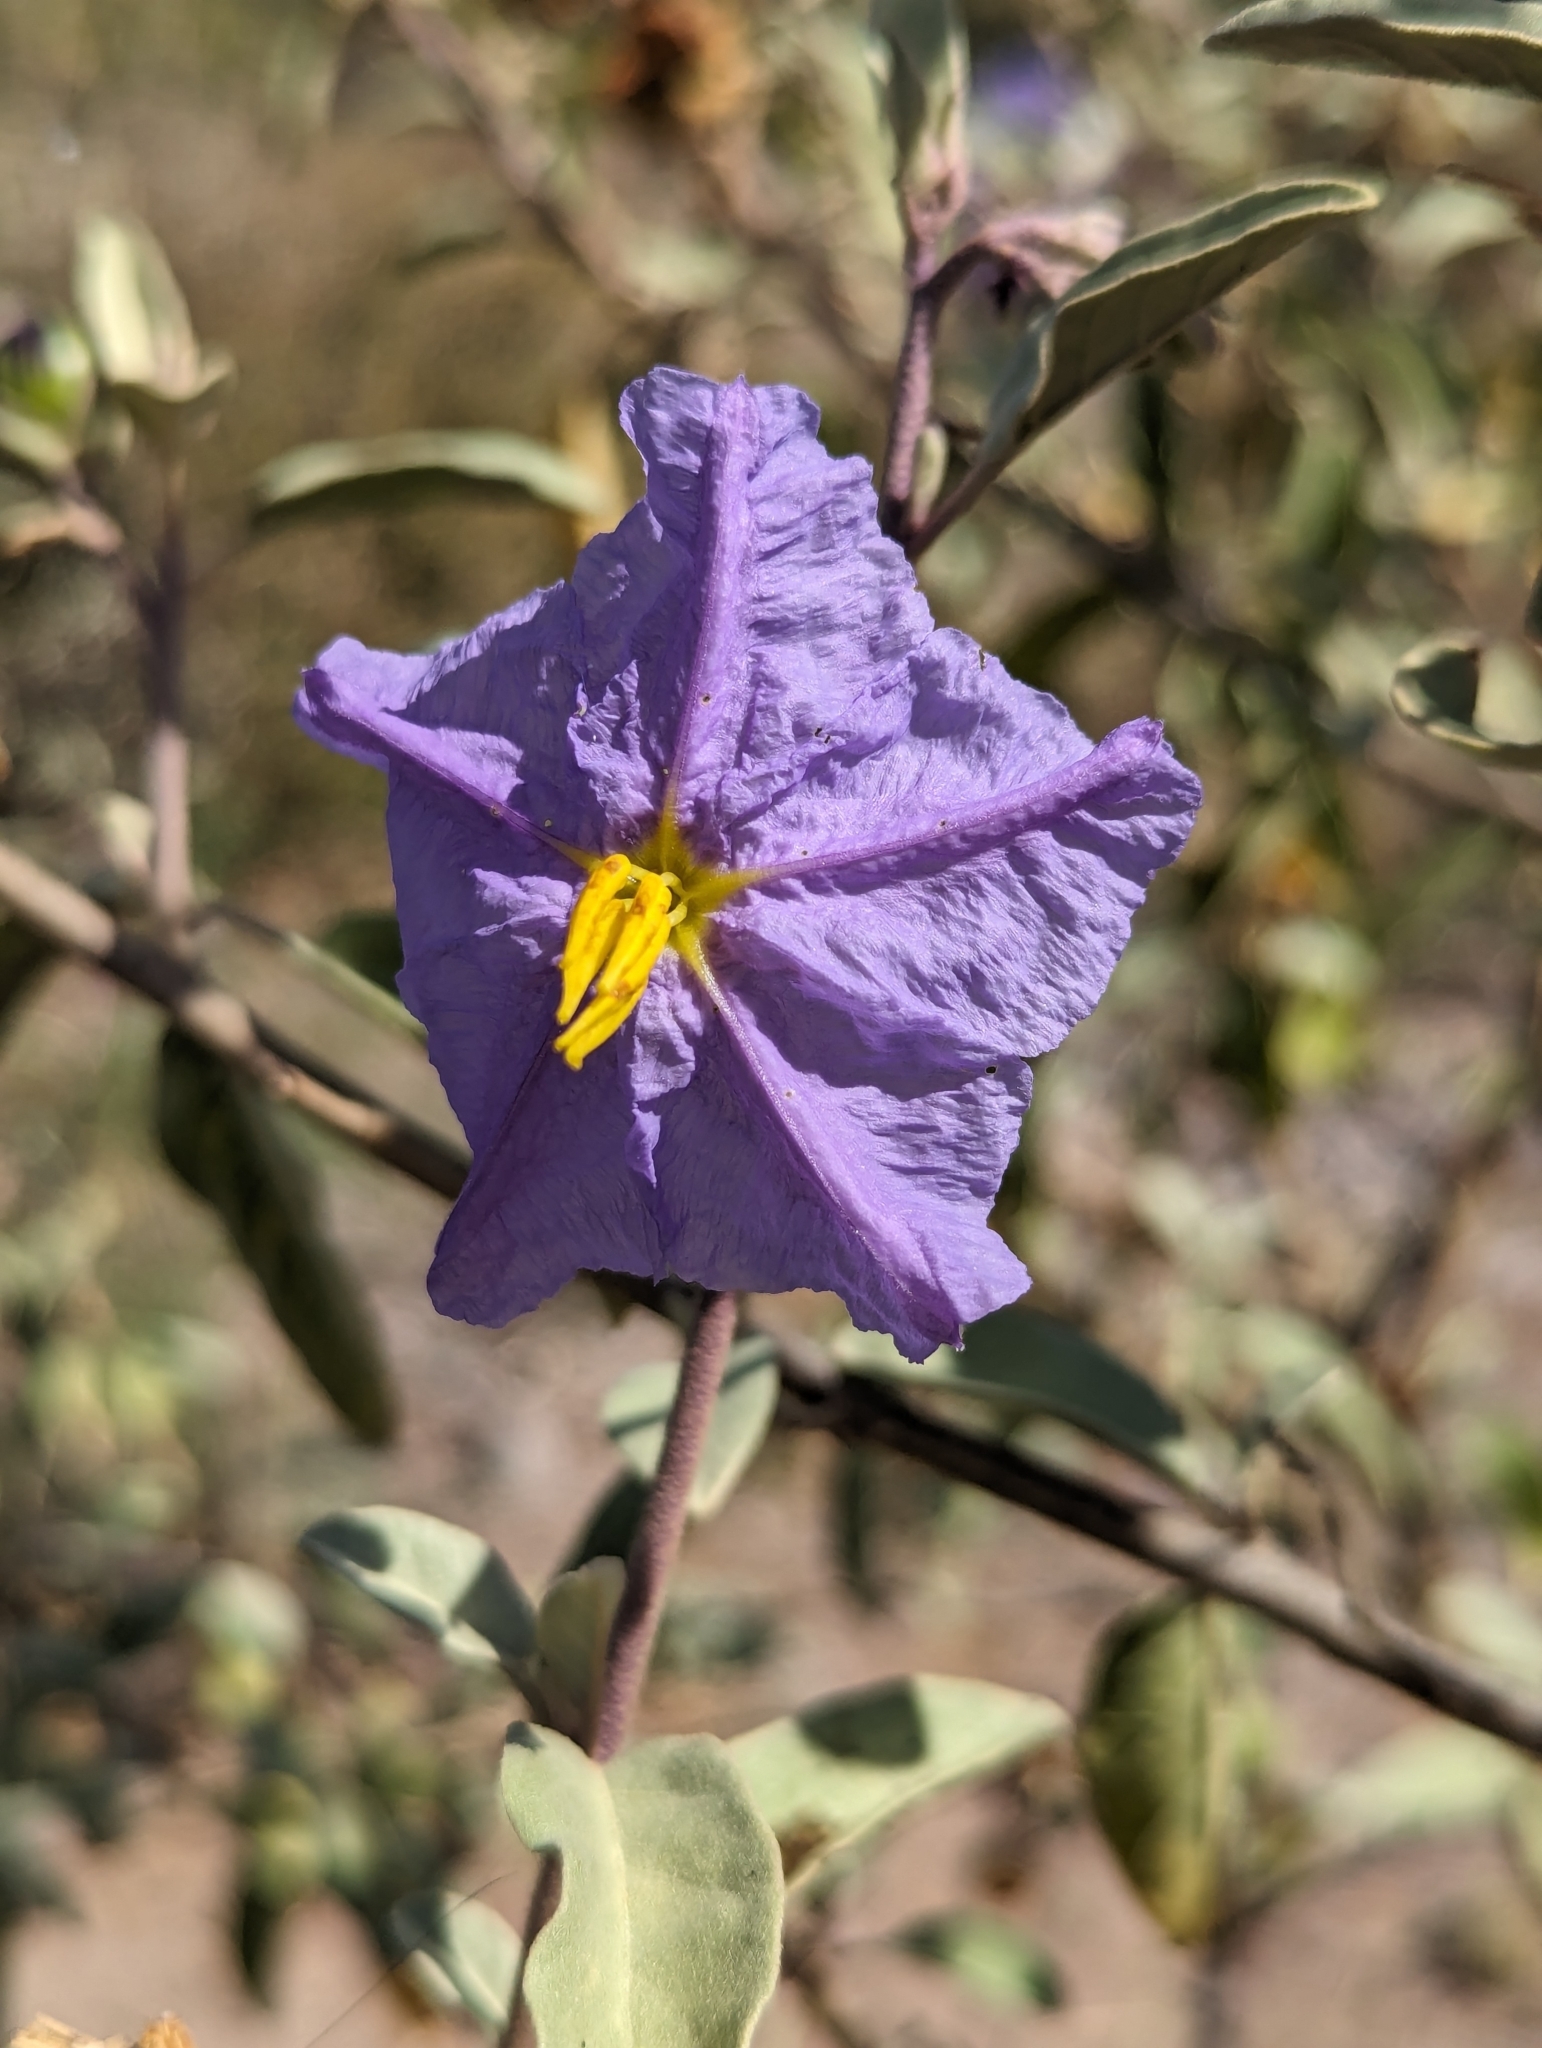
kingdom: Plantae
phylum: Tracheophyta
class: Magnoliopsida
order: Solanales
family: Solanaceae
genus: Solanum
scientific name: Solanum hindsianum
